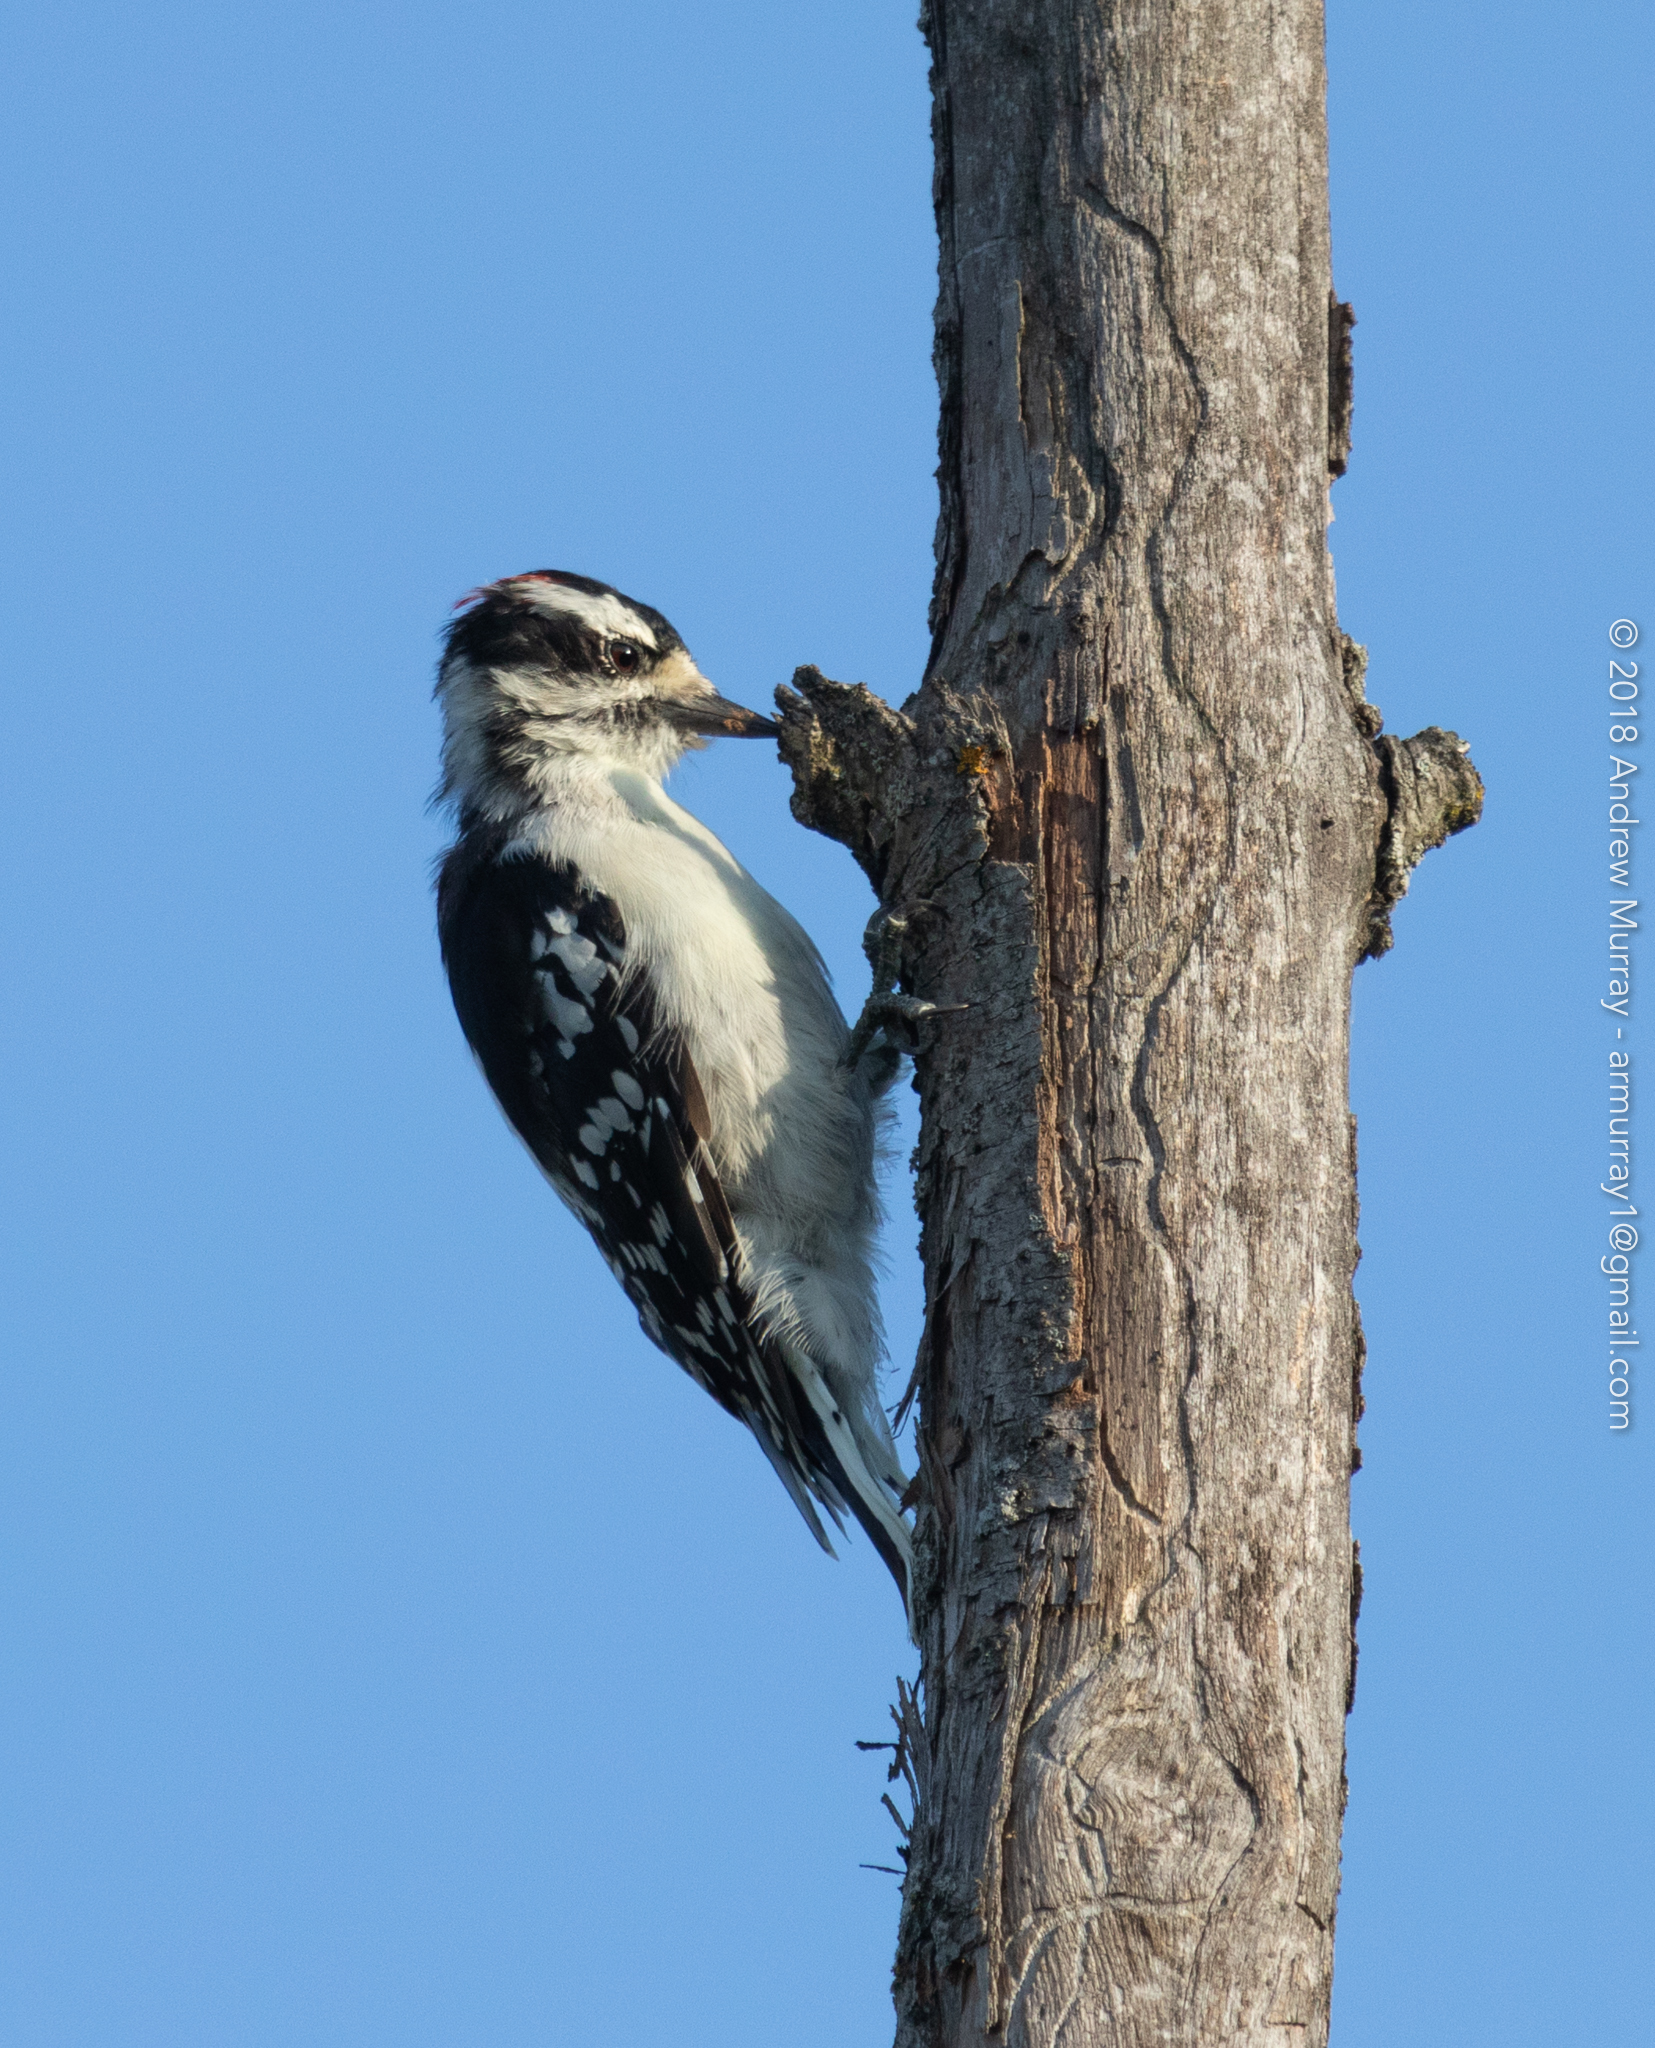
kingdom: Animalia
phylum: Chordata
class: Aves
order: Piciformes
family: Picidae
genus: Dryobates
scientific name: Dryobates pubescens
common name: Downy woodpecker
